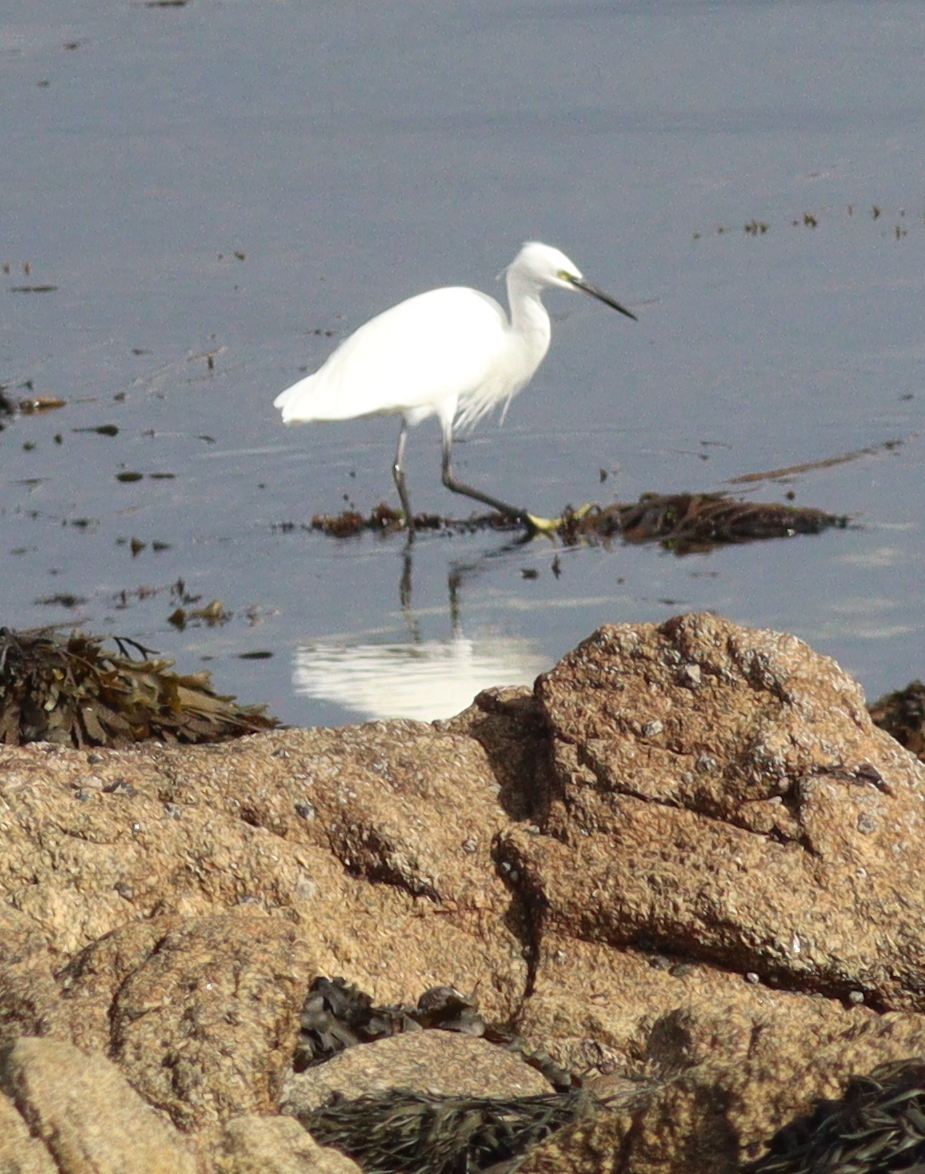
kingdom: Animalia
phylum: Chordata
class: Aves
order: Pelecaniformes
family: Ardeidae
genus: Egretta
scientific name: Egretta garzetta
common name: Little egret
